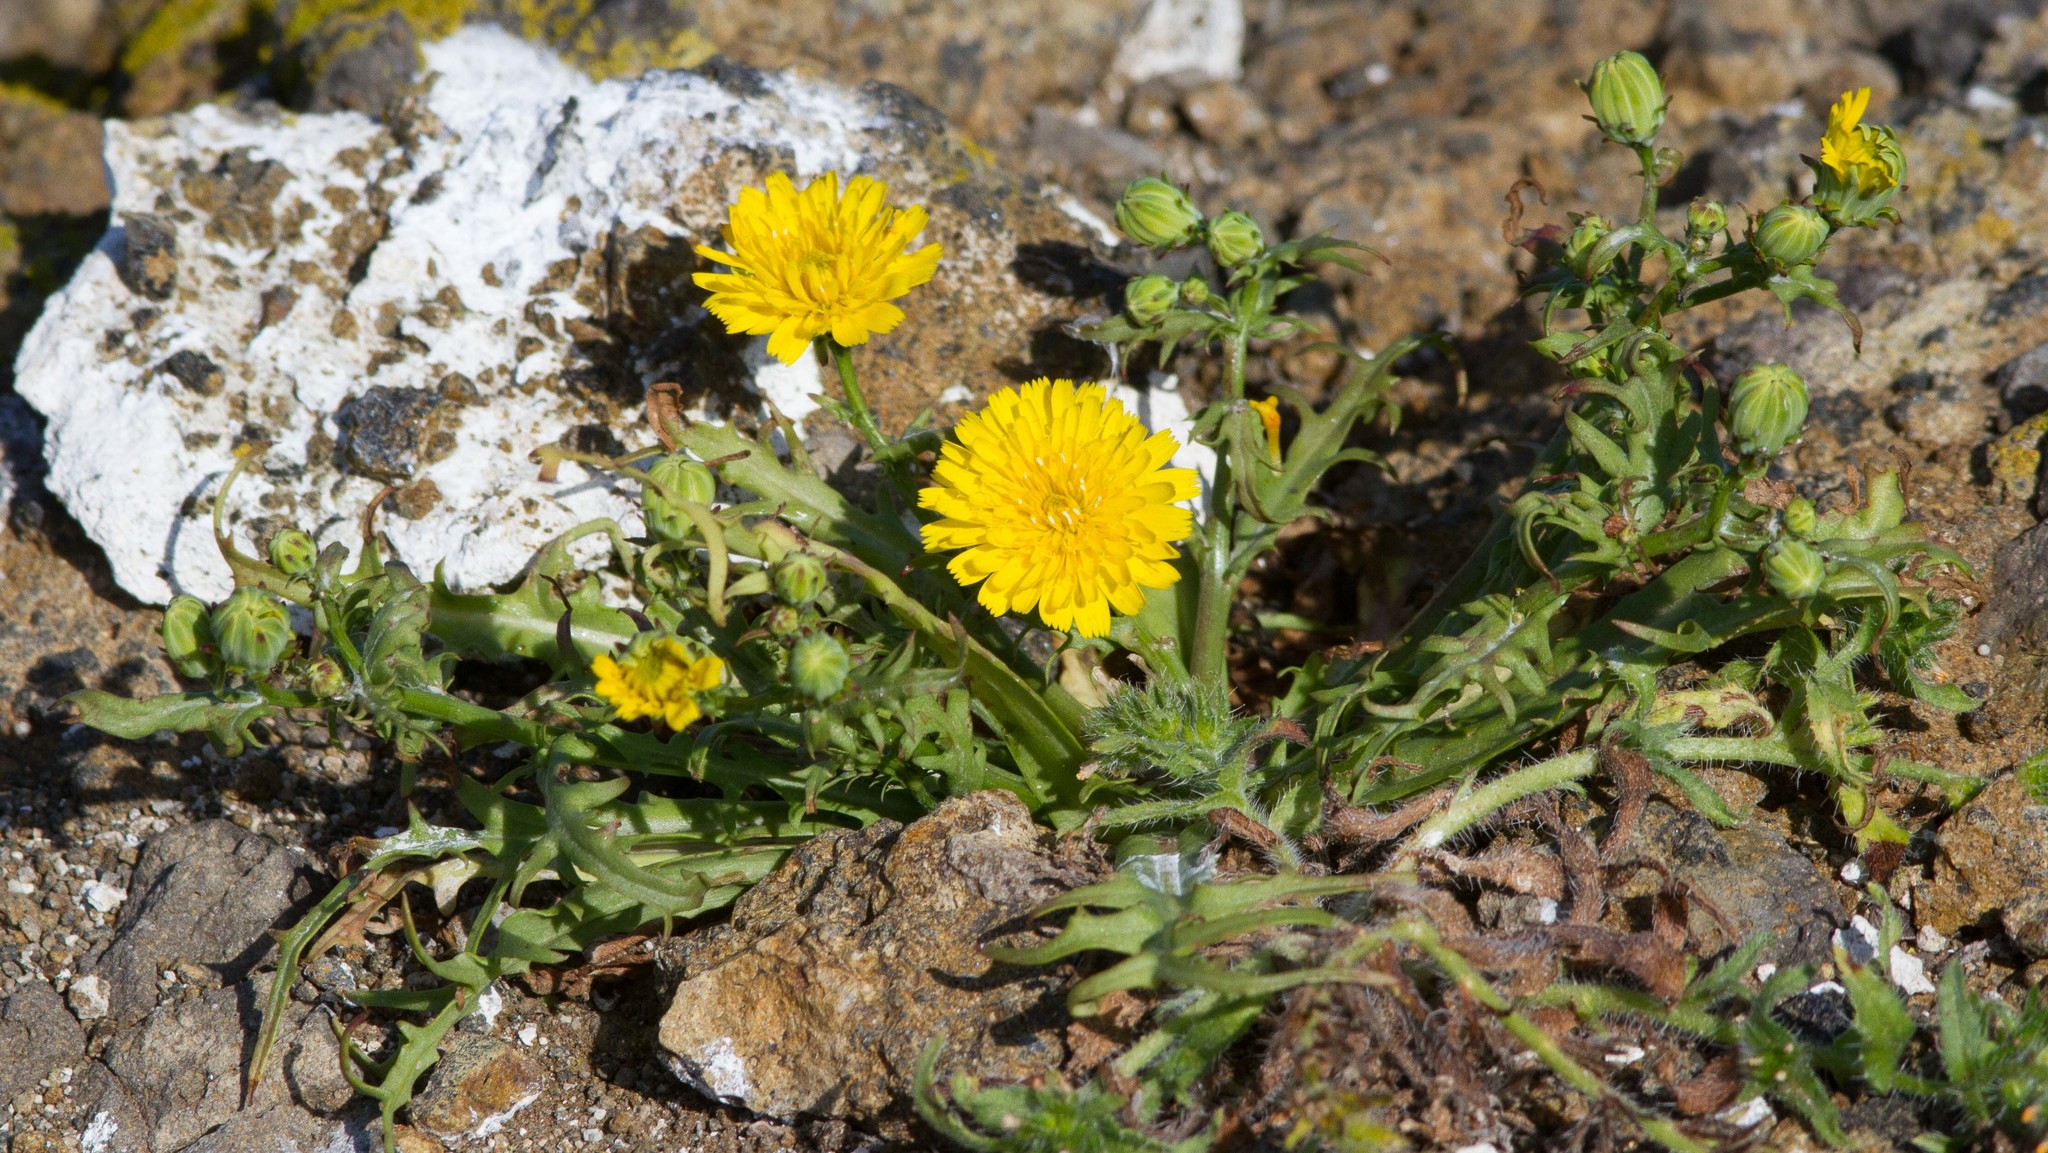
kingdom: Plantae
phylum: Tracheophyta
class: Magnoliopsida
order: Asterales
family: Asteraceae
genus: Malacothrix
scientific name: Malacothrix foliosa
